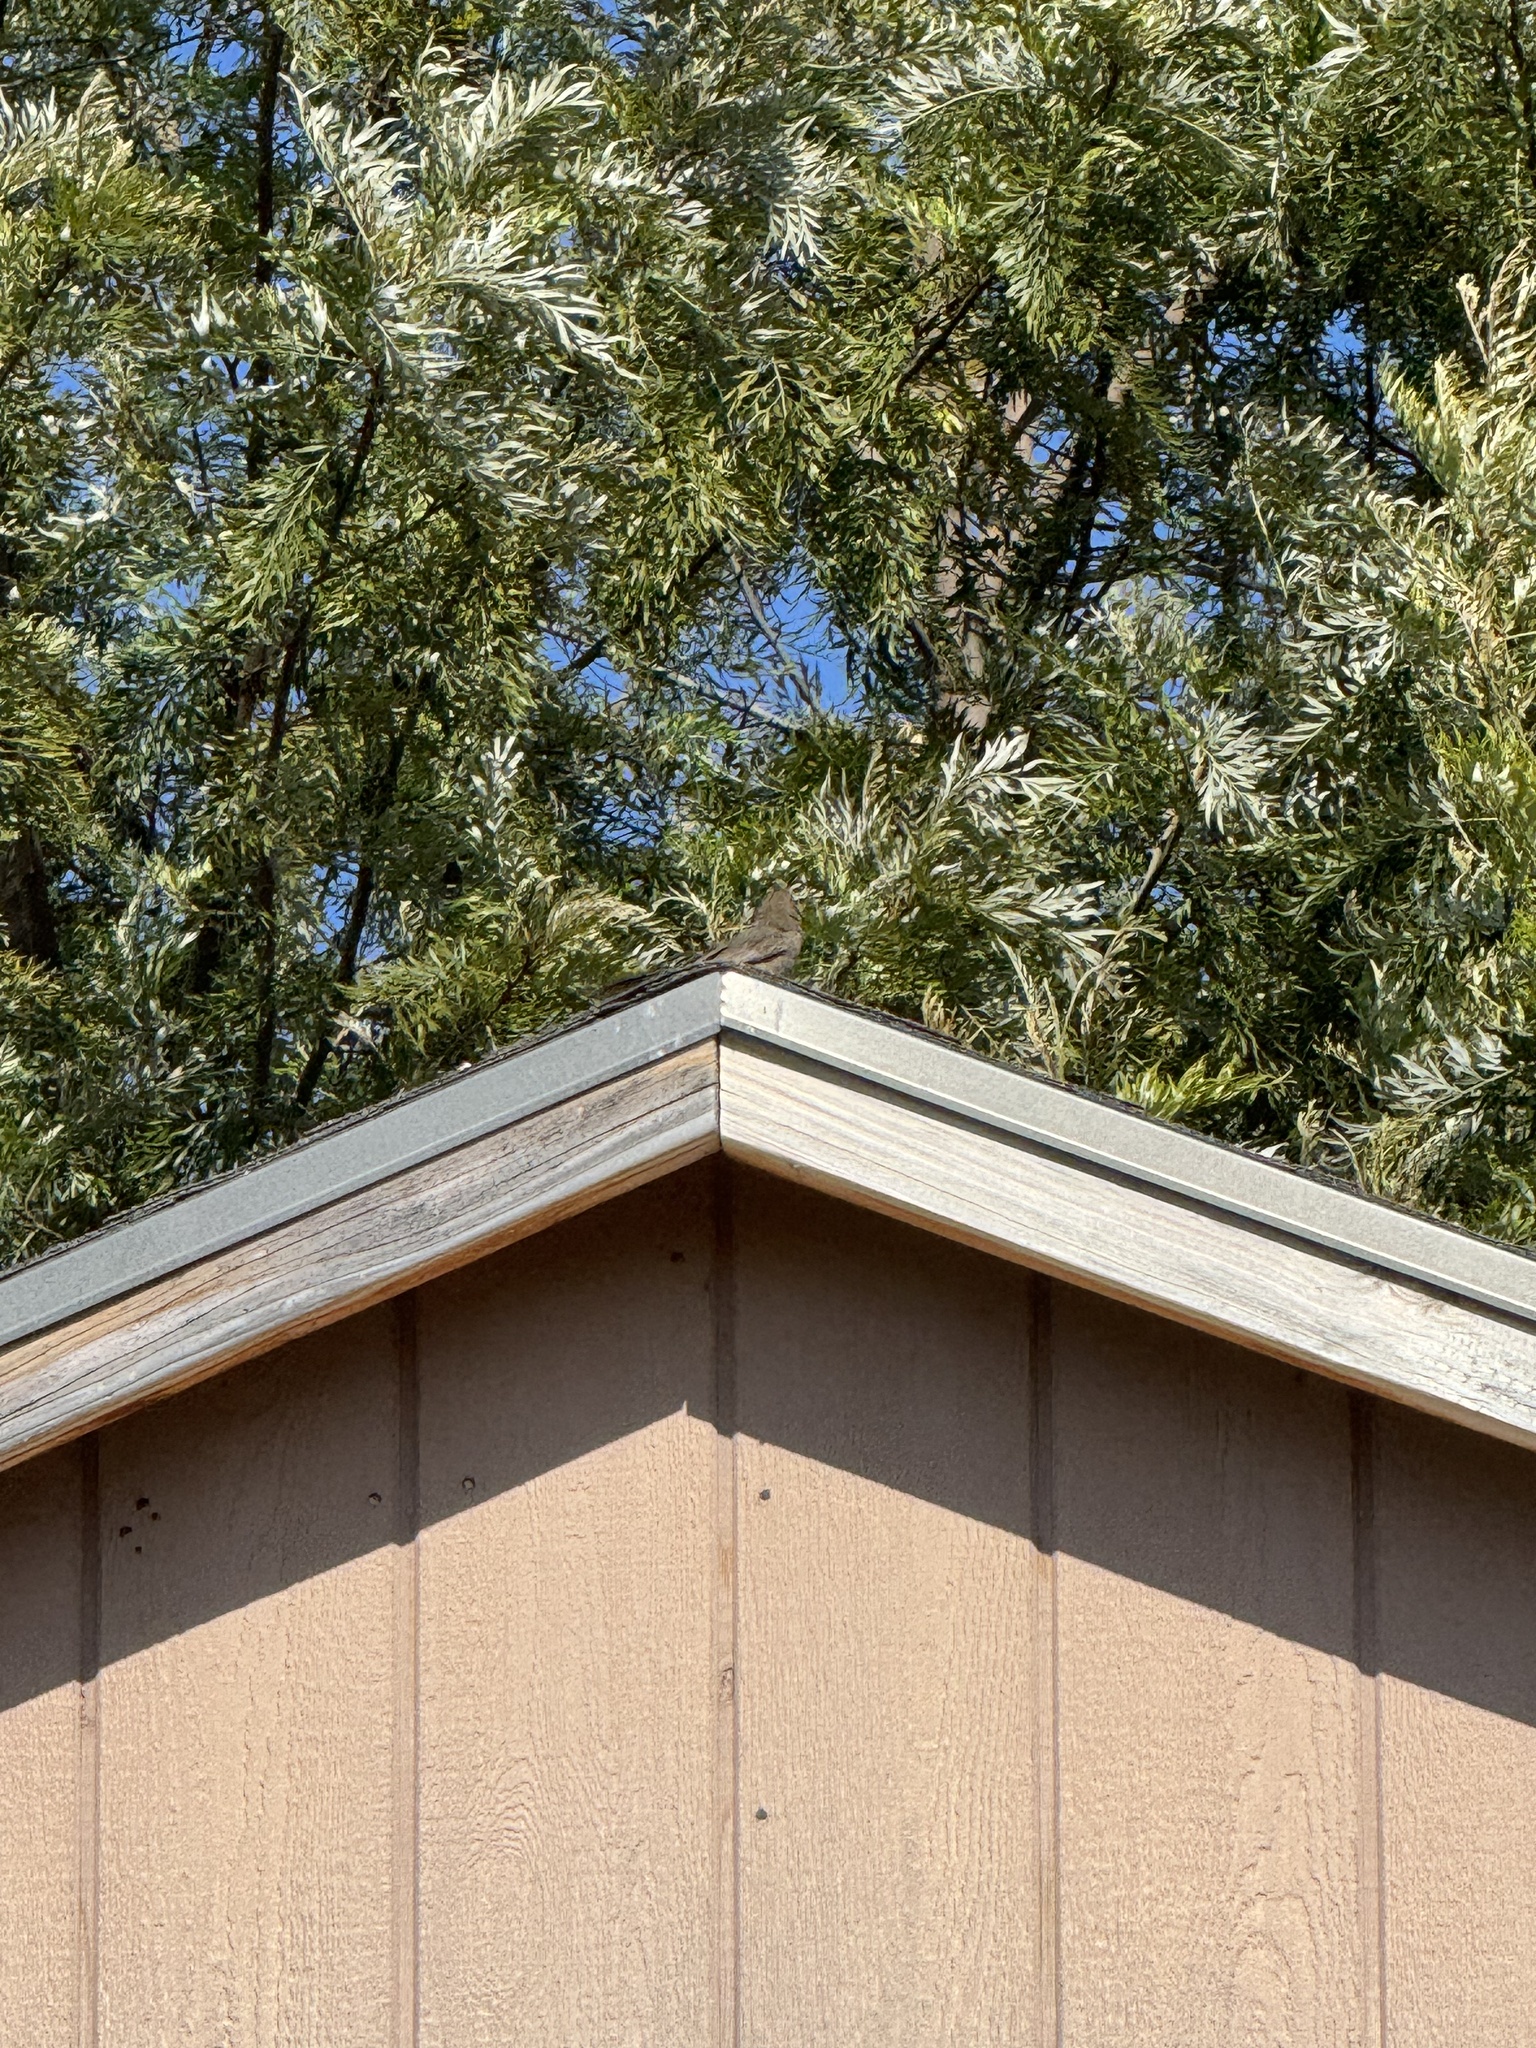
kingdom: Animalia
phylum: Chordata
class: Aves
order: Passeriformes
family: Passerellidae
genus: Melozone
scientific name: Melozone crissalis
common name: California towhee
